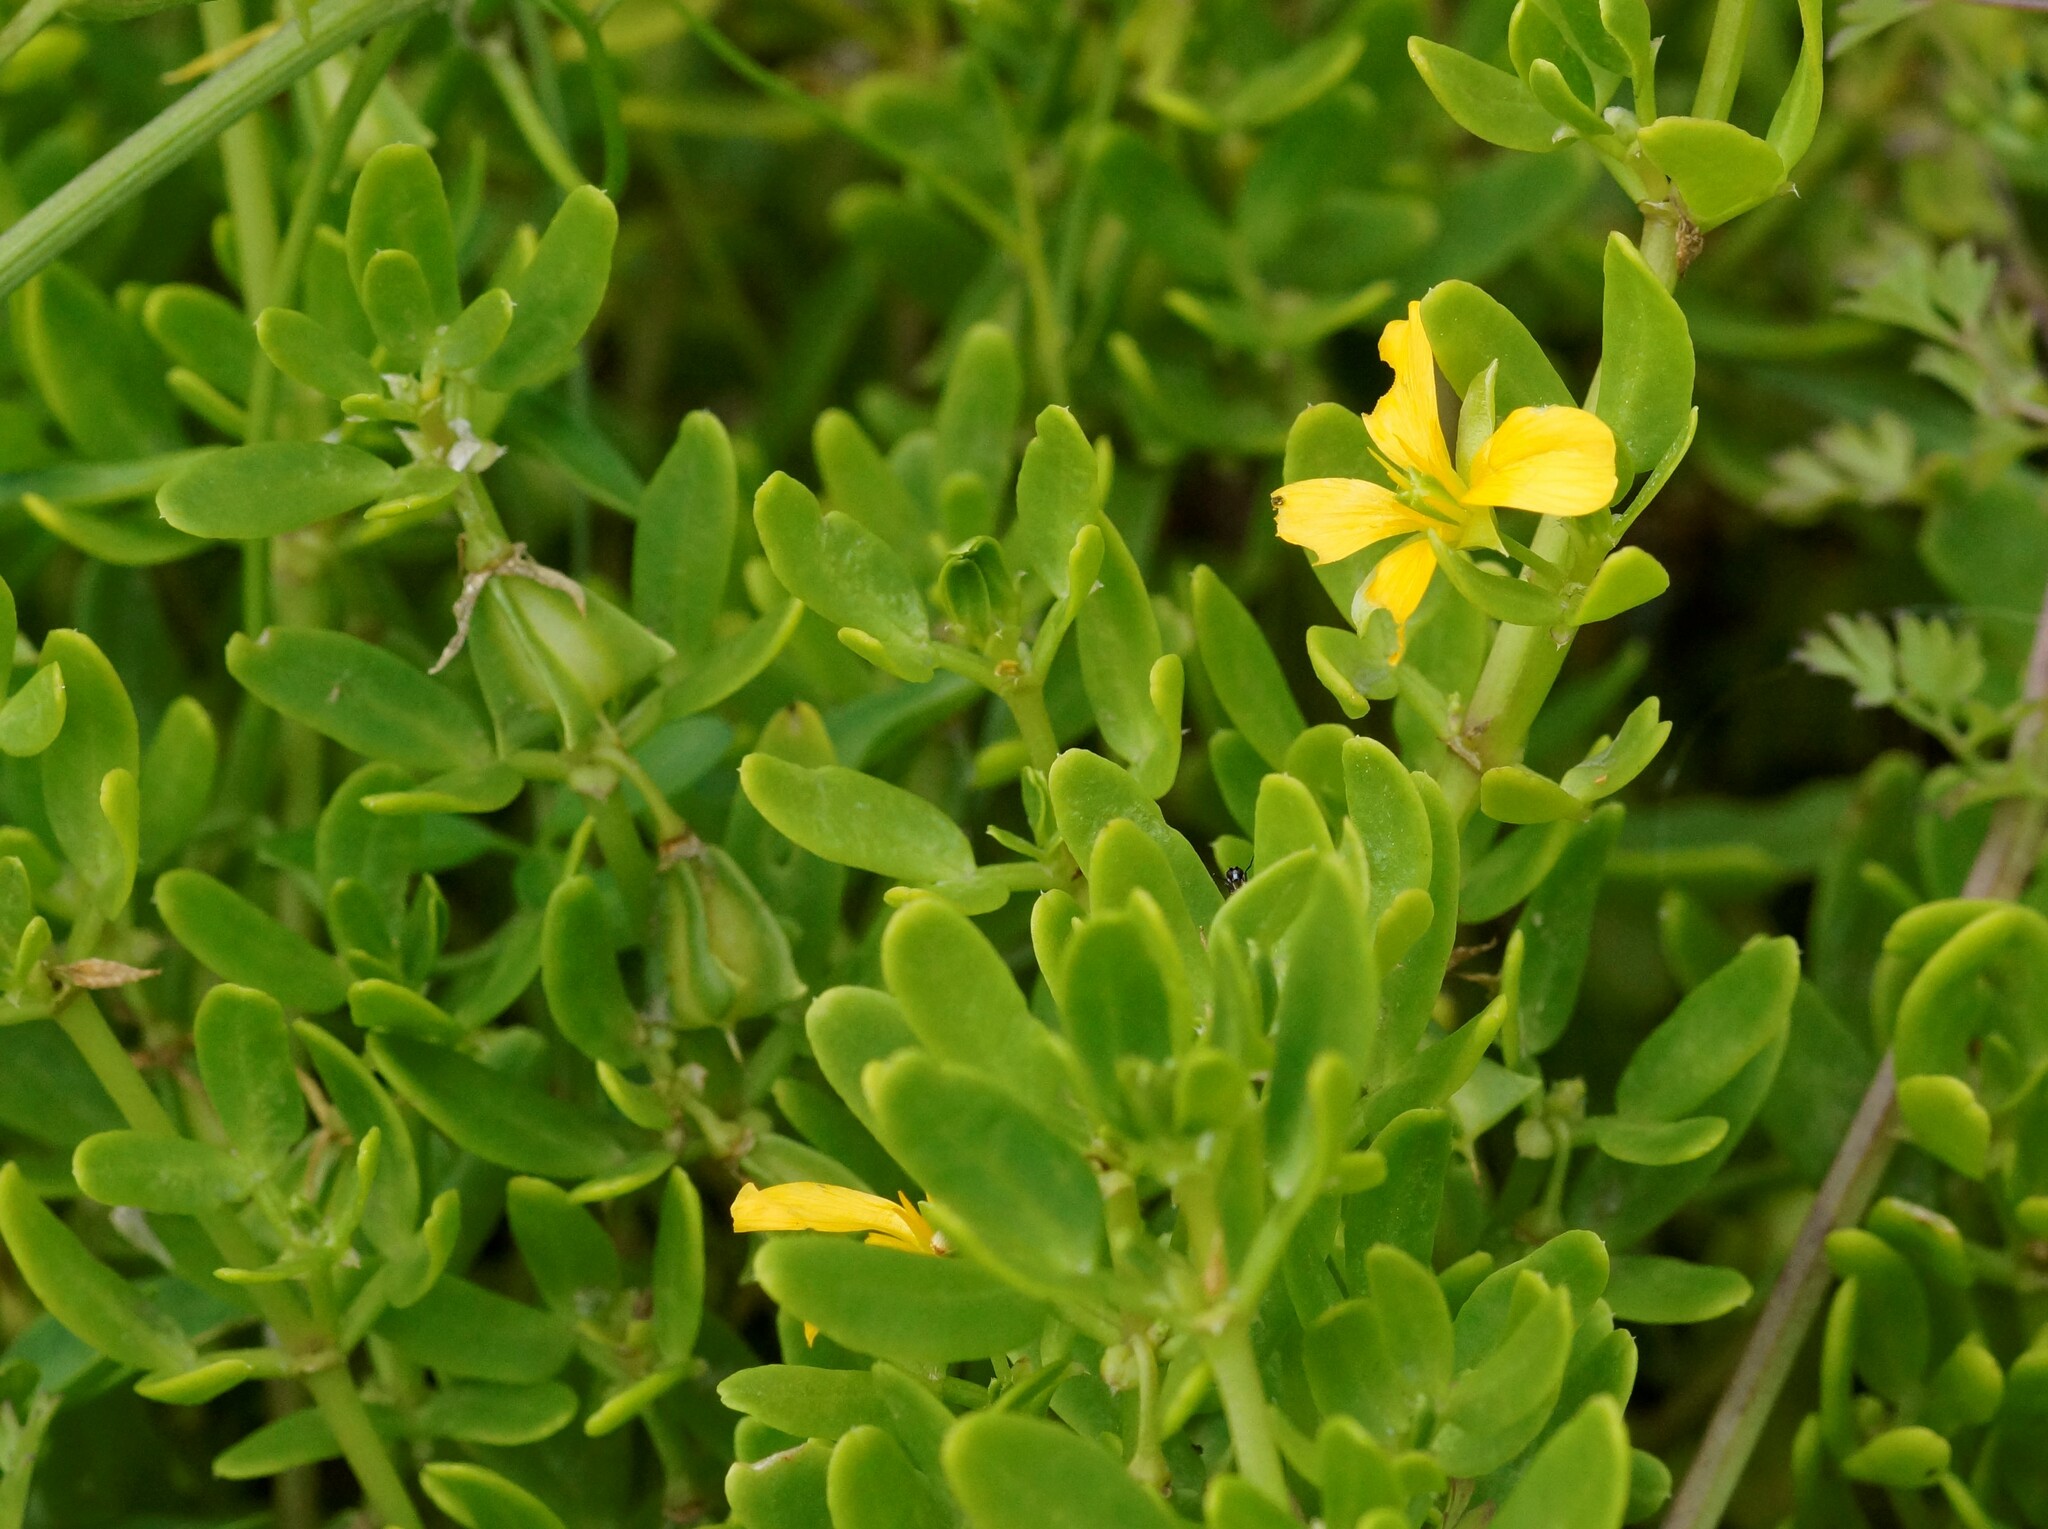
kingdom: Plantae
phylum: Tracheophyta
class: Magnoliopsida
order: Zygophyllales
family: Zygophyllaceae
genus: Roepera
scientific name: Roepera billardieri
